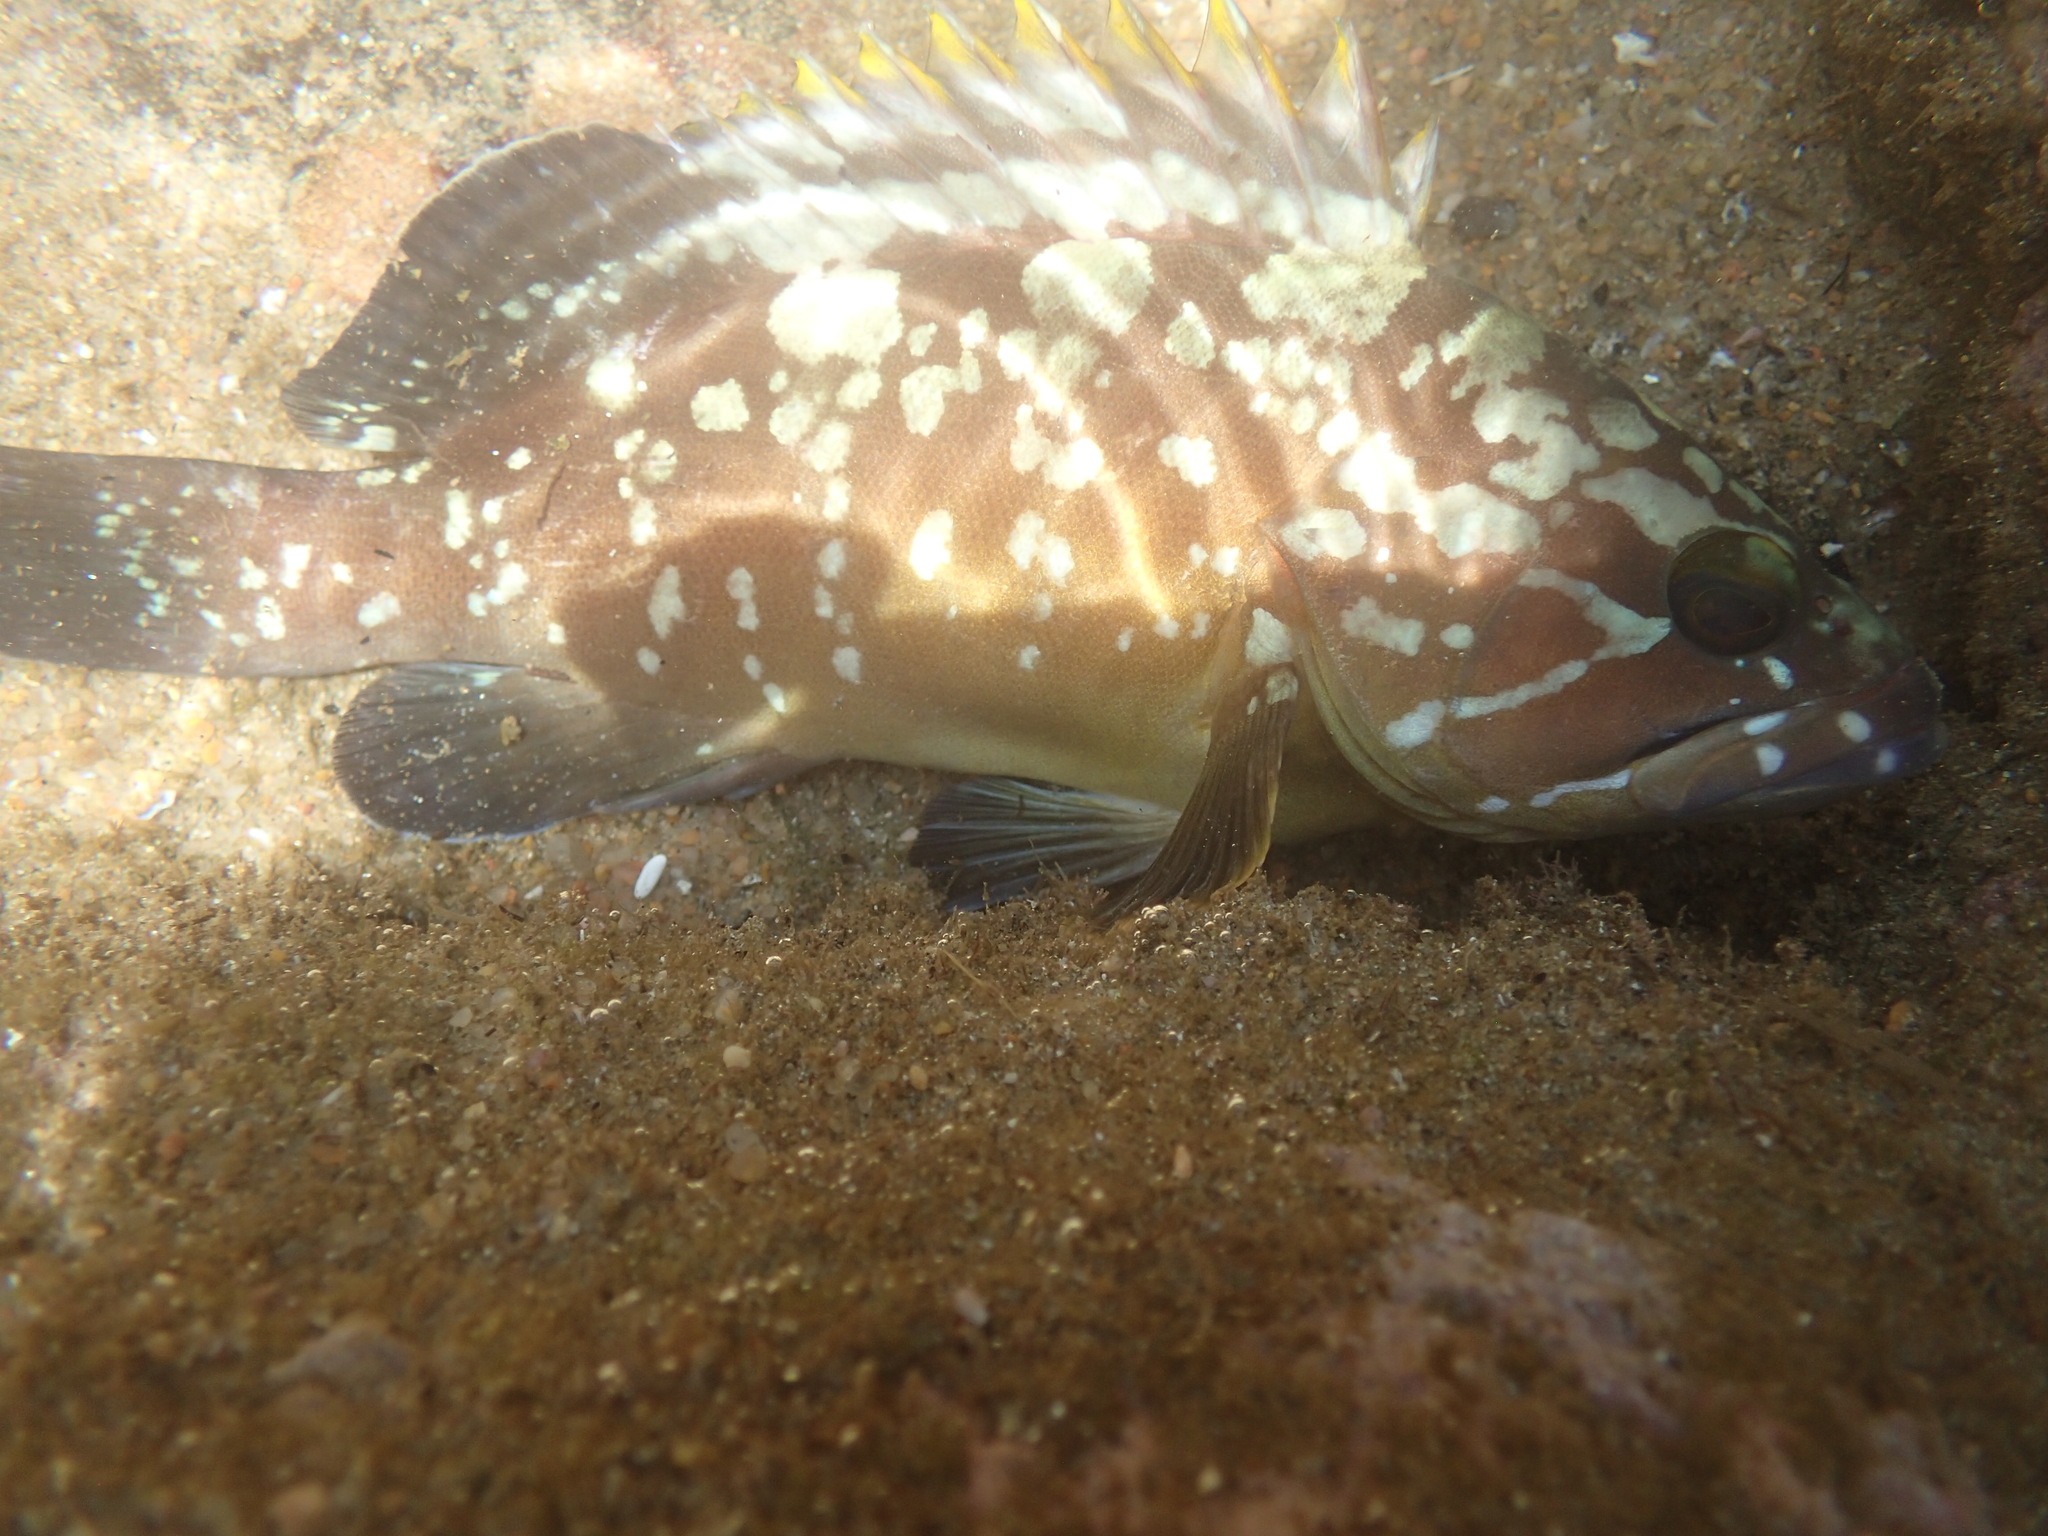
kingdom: Animalia
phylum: Chordata
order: Perciformes
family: Serranidae
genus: Epinephelus
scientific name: Epinephelus marginatus
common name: Dusky grouper
